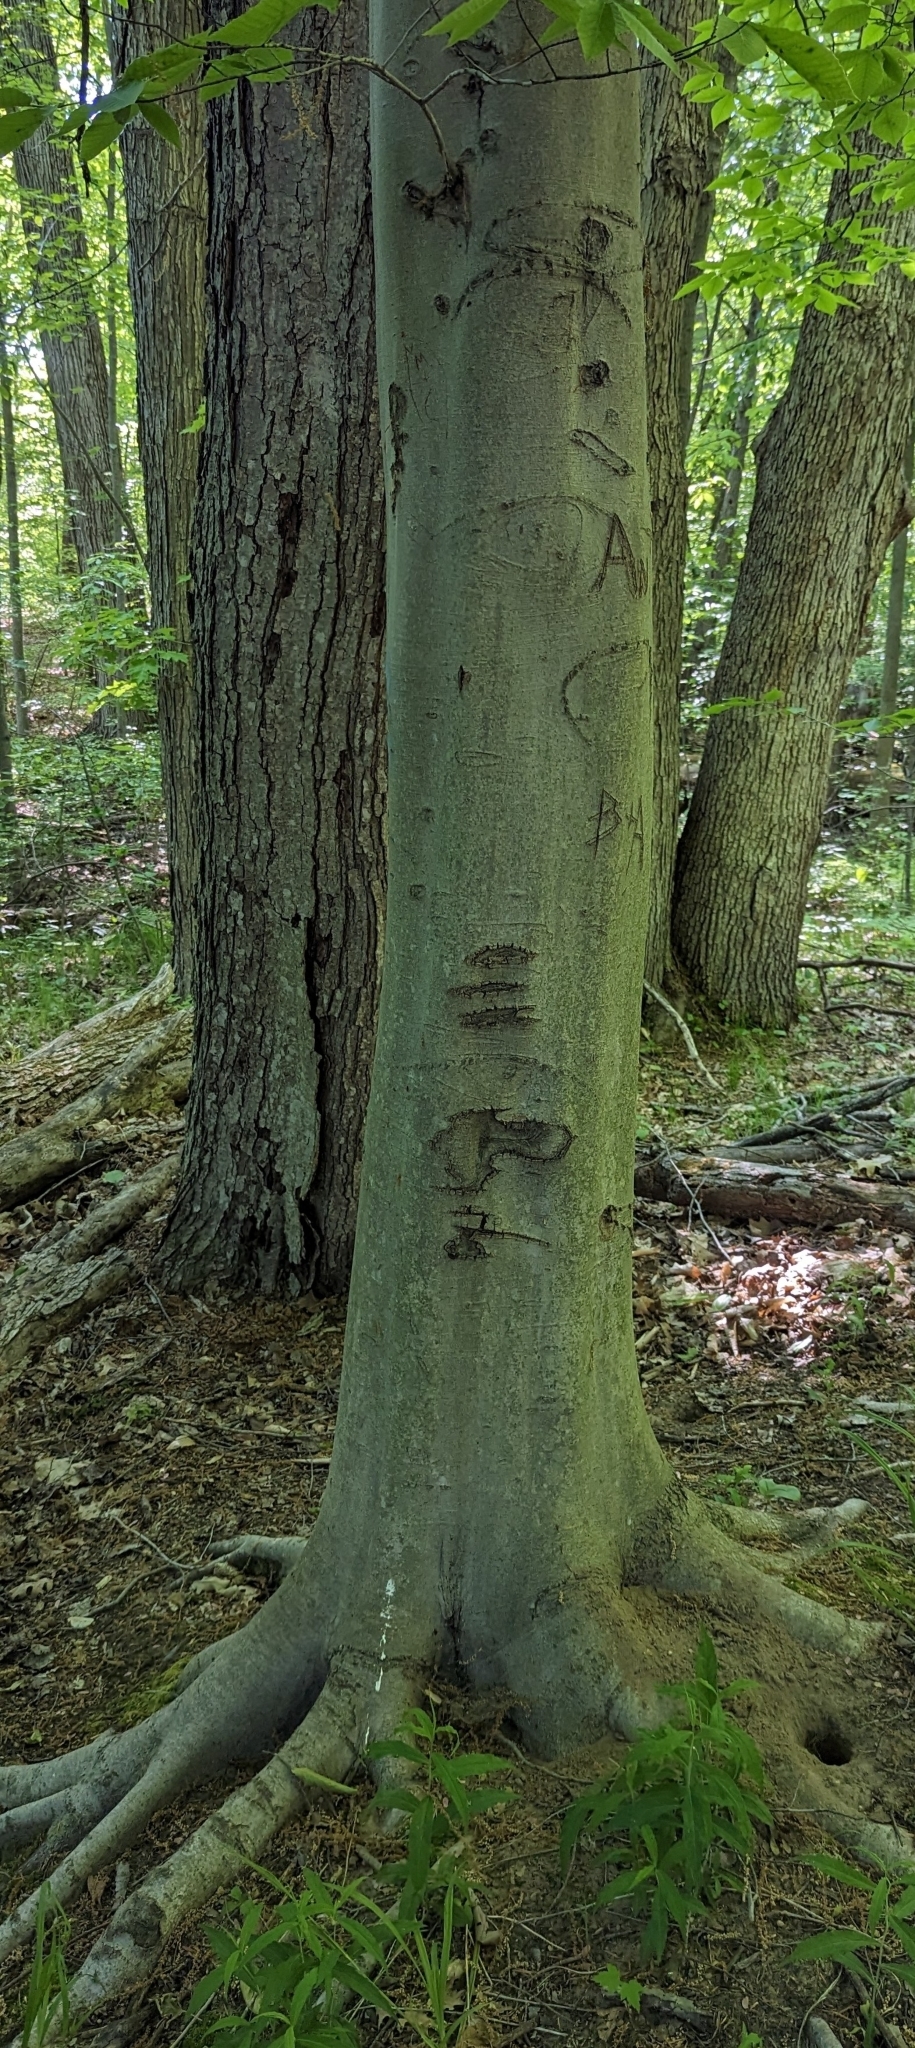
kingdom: Plantae
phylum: Tracheophyta
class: Magnoliopsida
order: Fagales
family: Fagaceae
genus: Fagus
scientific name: Fagus grandifolia
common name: American beech
